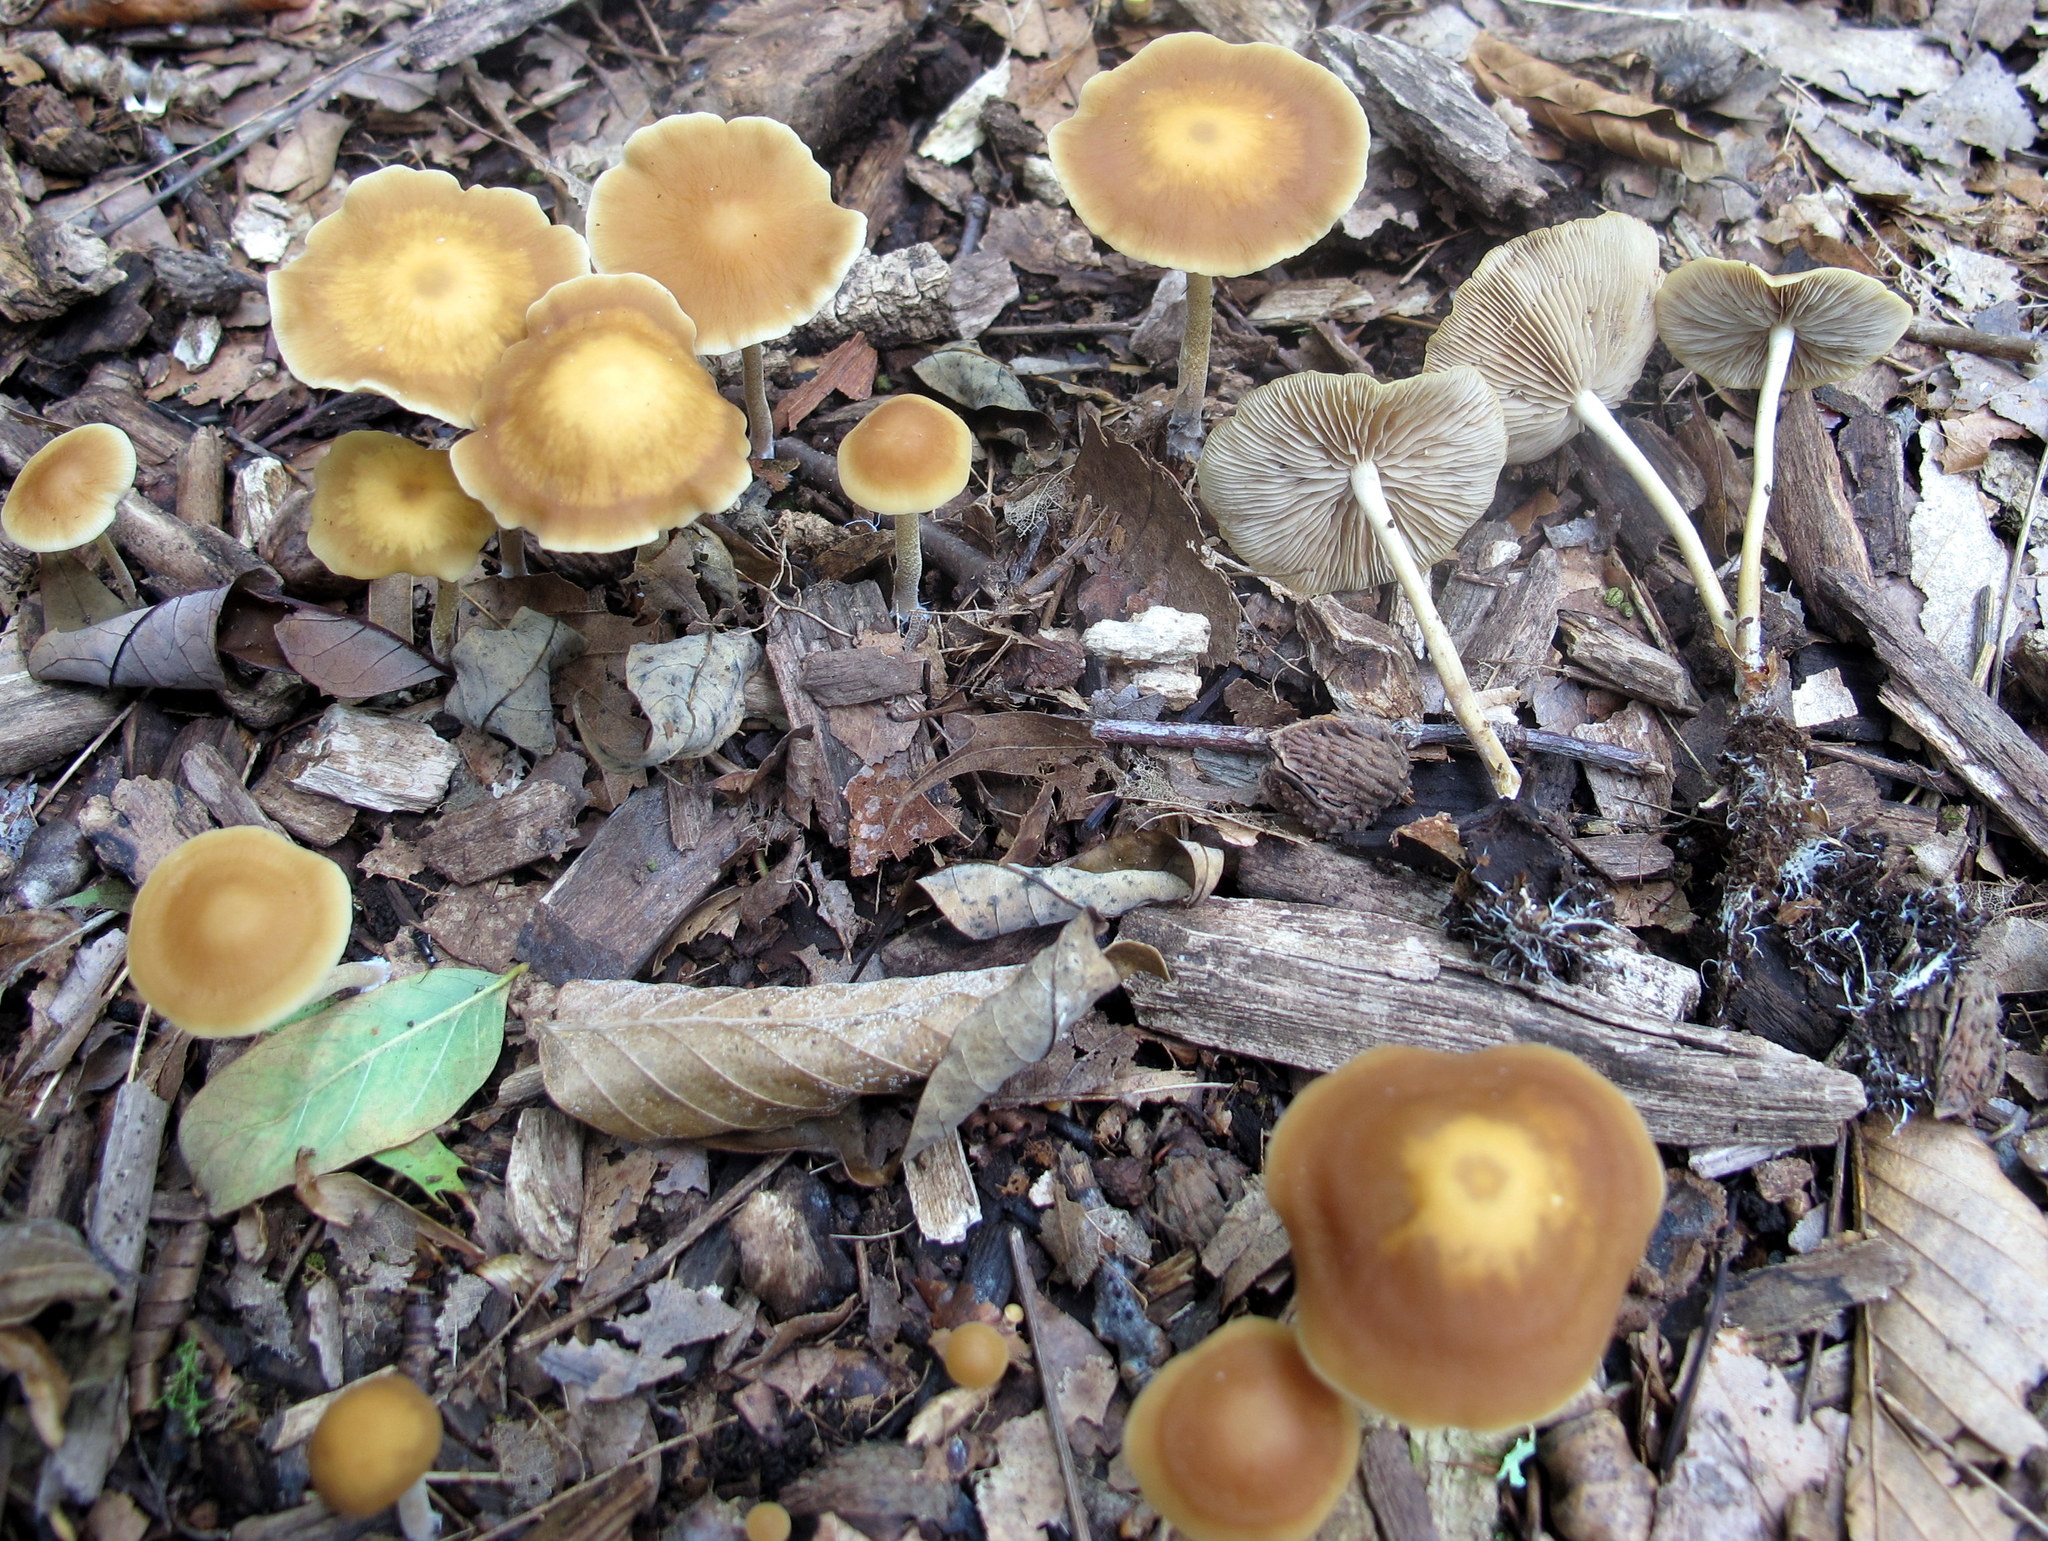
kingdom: Fungi
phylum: Basidiomycota
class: Agaricomycetes
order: Agaricales
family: Strophariaceae
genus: Agrocybe
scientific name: Agrocybe arvalis
